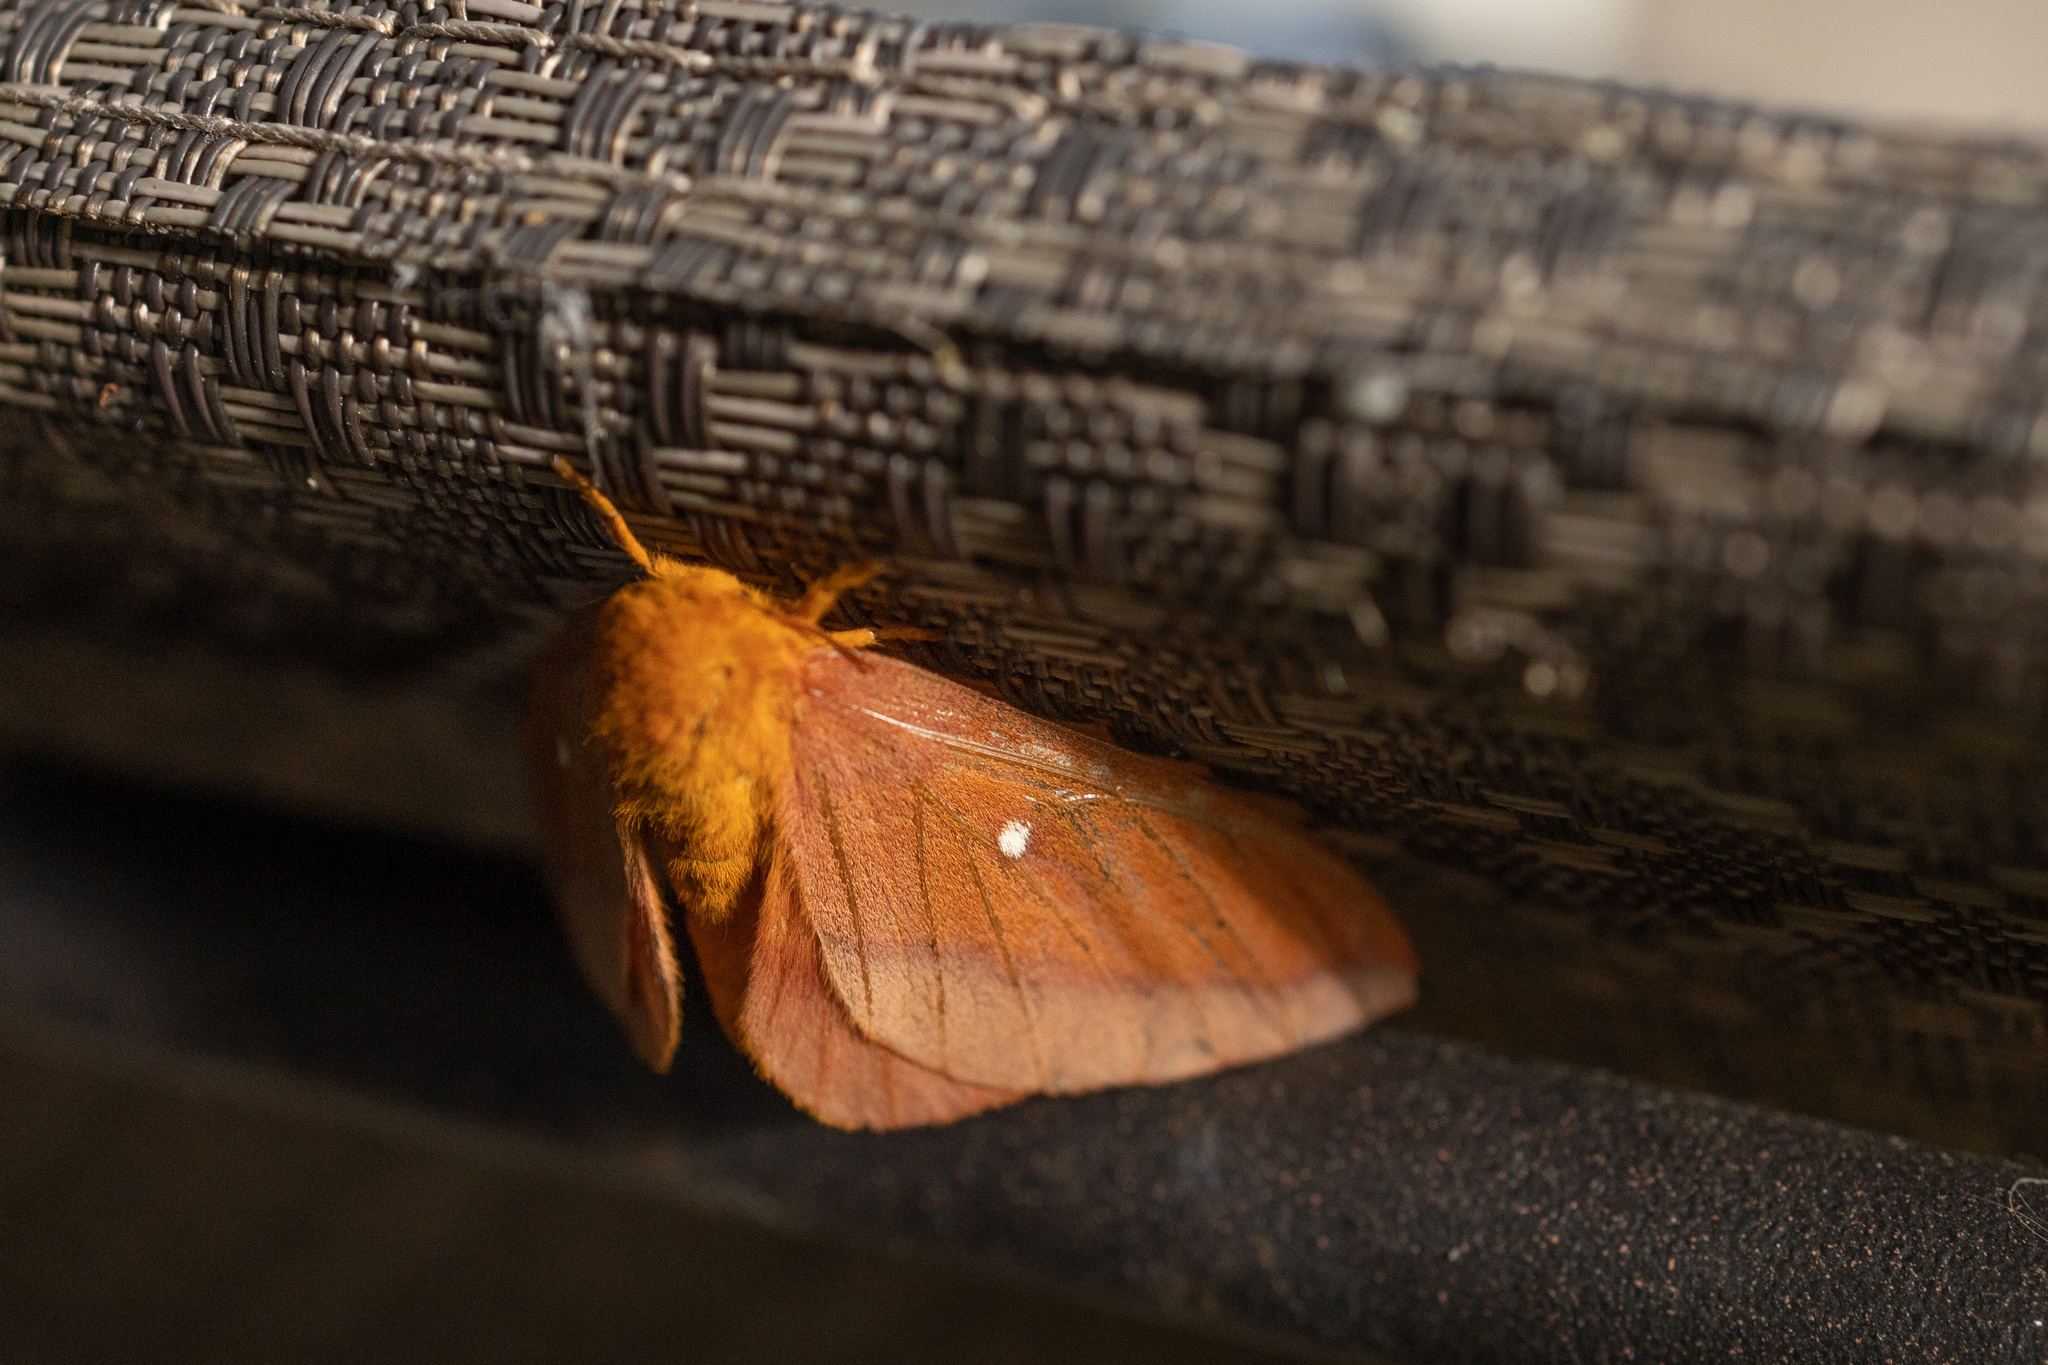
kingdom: Animalia
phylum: Arthropoda
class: Insecta
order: Lepidoptera
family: Saturniidae
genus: Anisota
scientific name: Anisota virginiensis
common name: Pink striped oakworm moth
